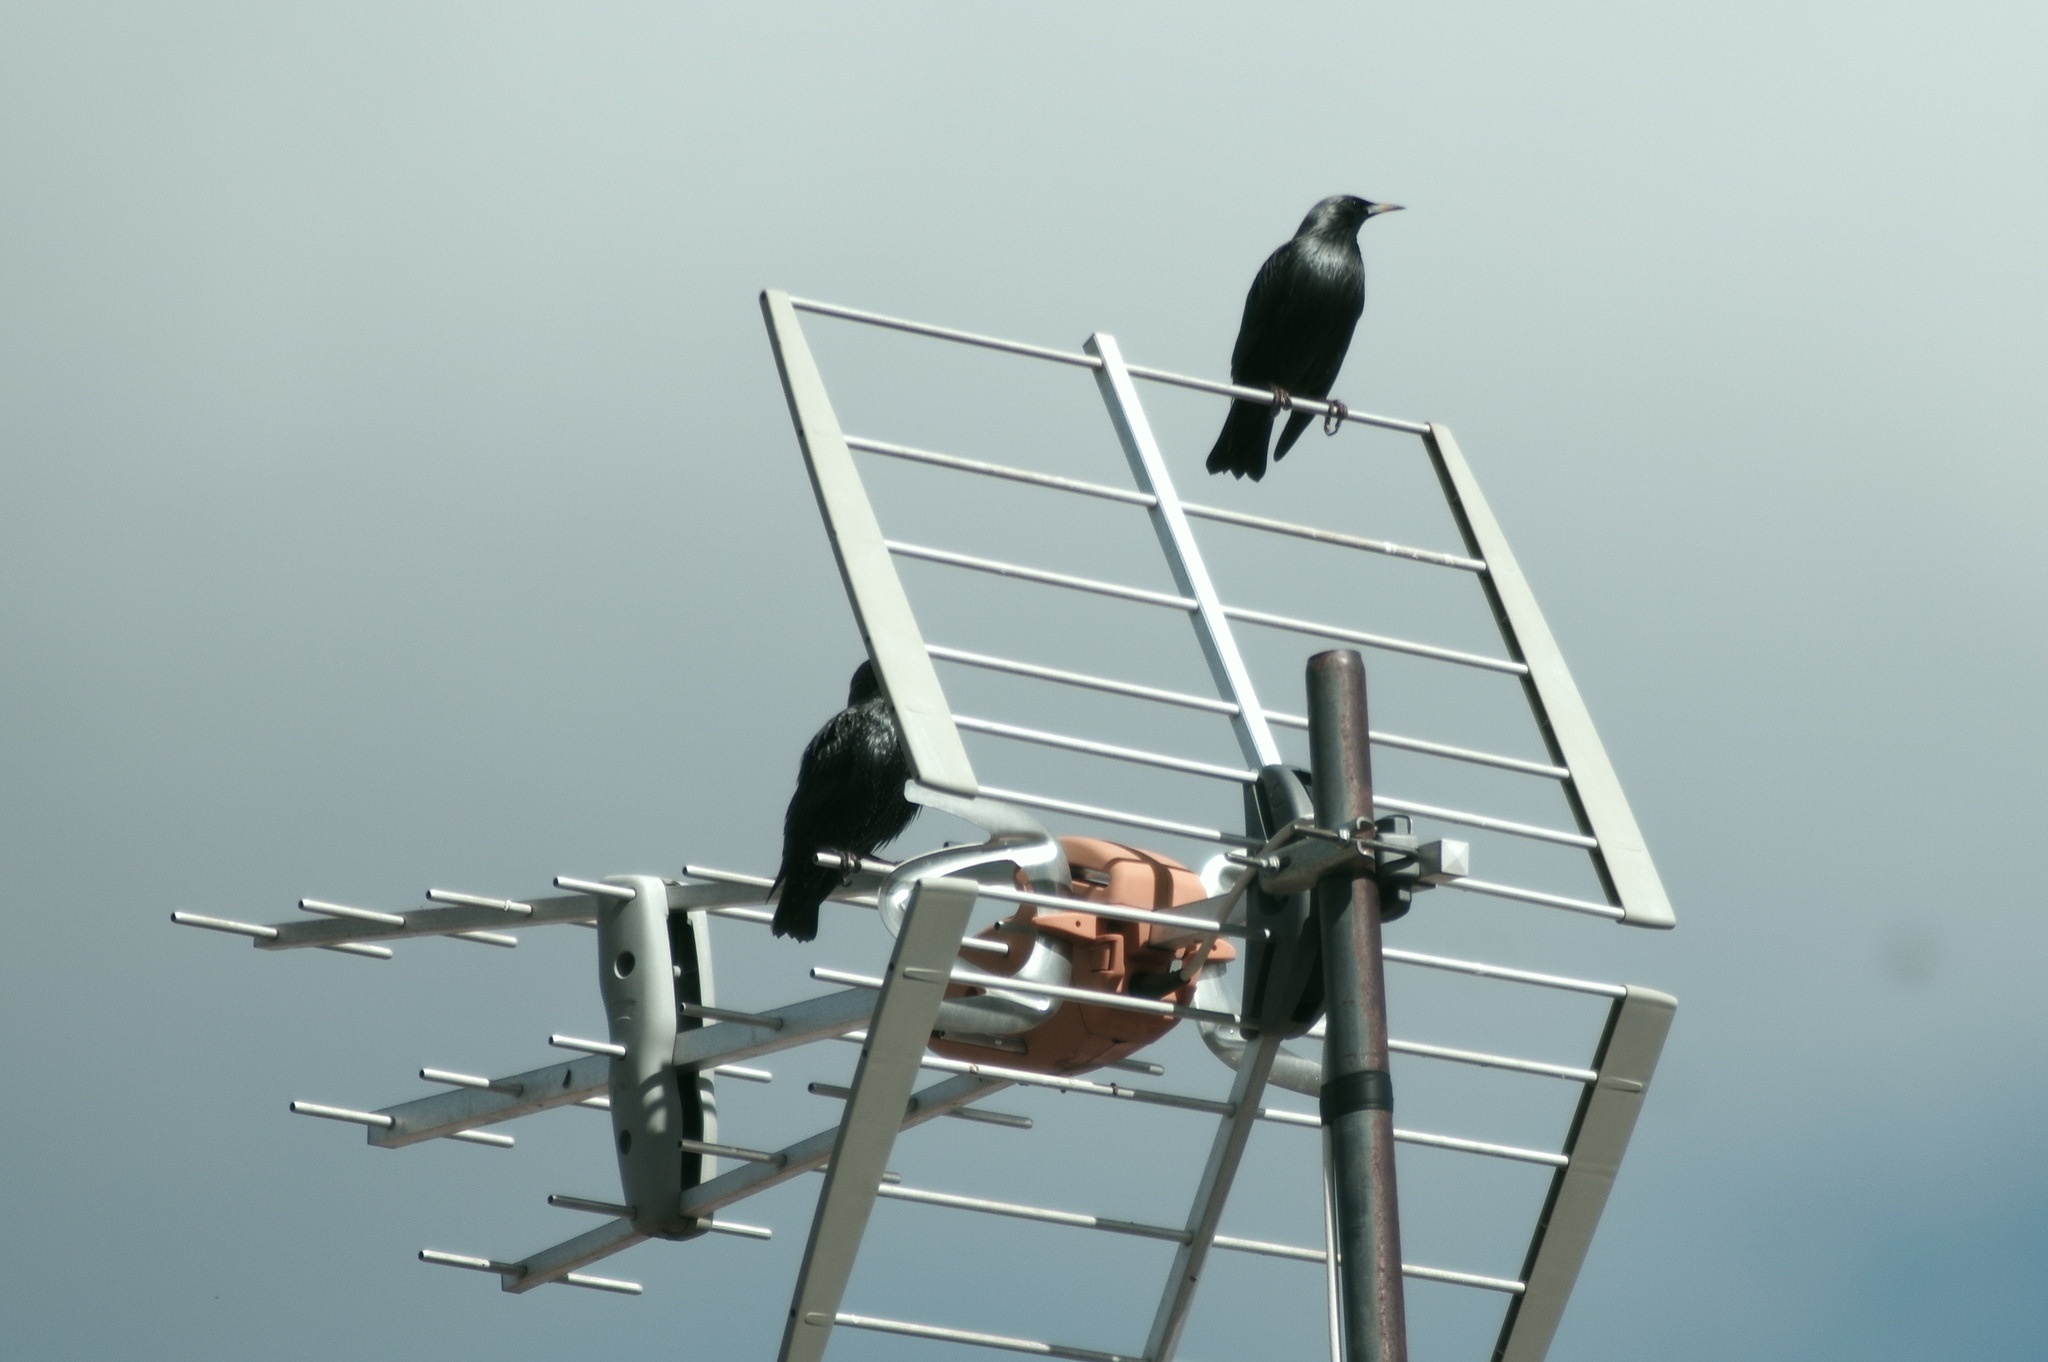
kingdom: Animalia
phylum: Chordata
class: Aves
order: Passeriformes
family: Sturnidae
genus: Sturnus
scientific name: Sturnus unicolor
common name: Spotless starling
